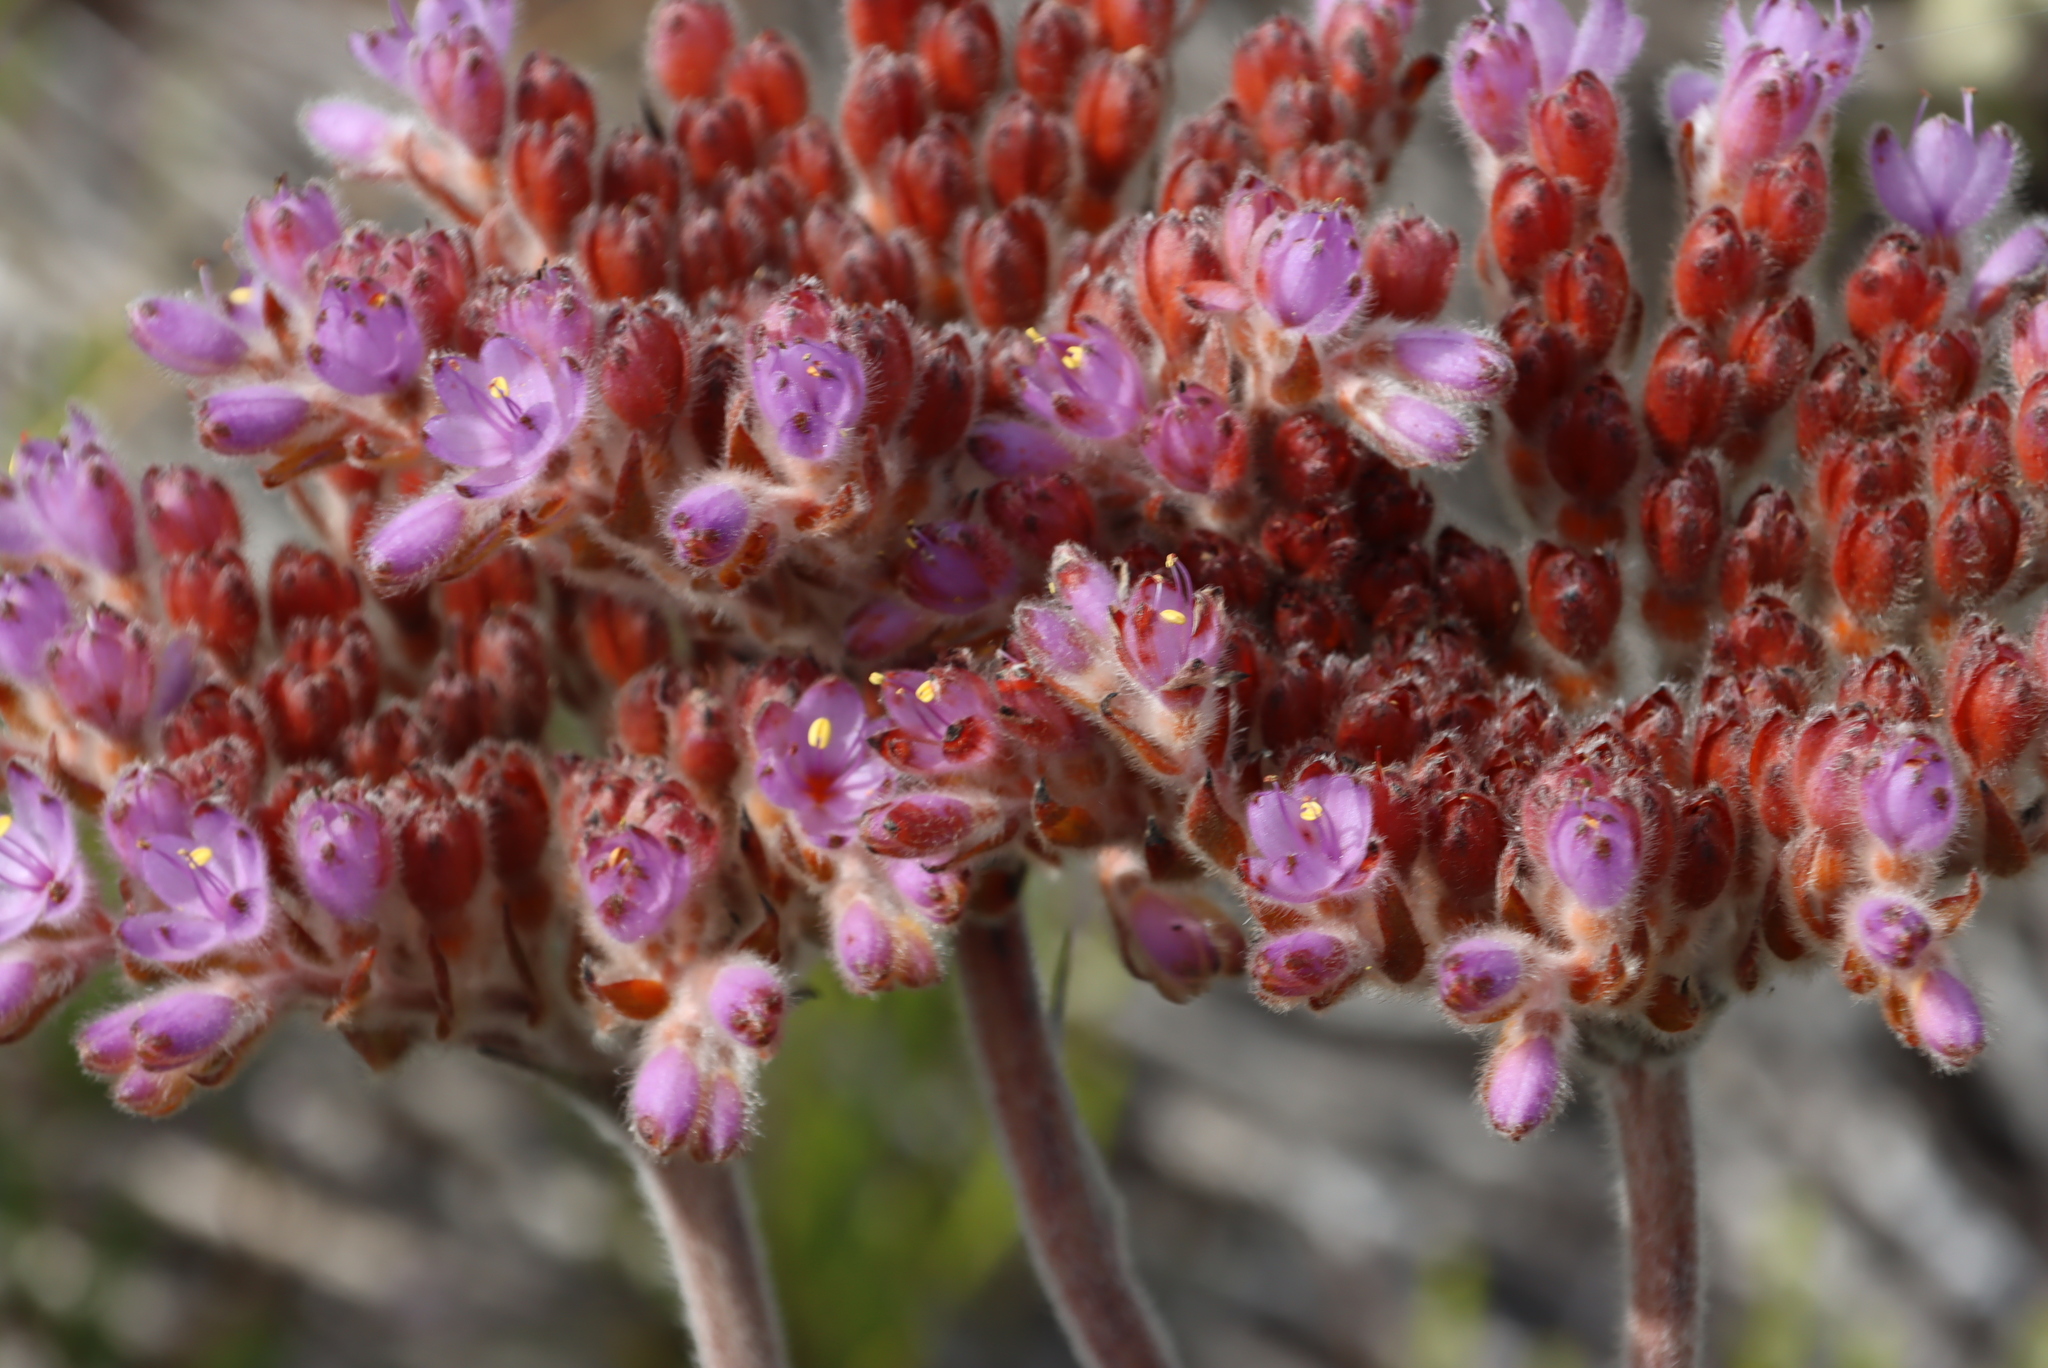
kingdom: Plantae
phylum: Tracheophyta
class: Liliopsida
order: Commelinales
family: Haemodoraceae
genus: Dilatris
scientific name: Dilatris corymbosa
